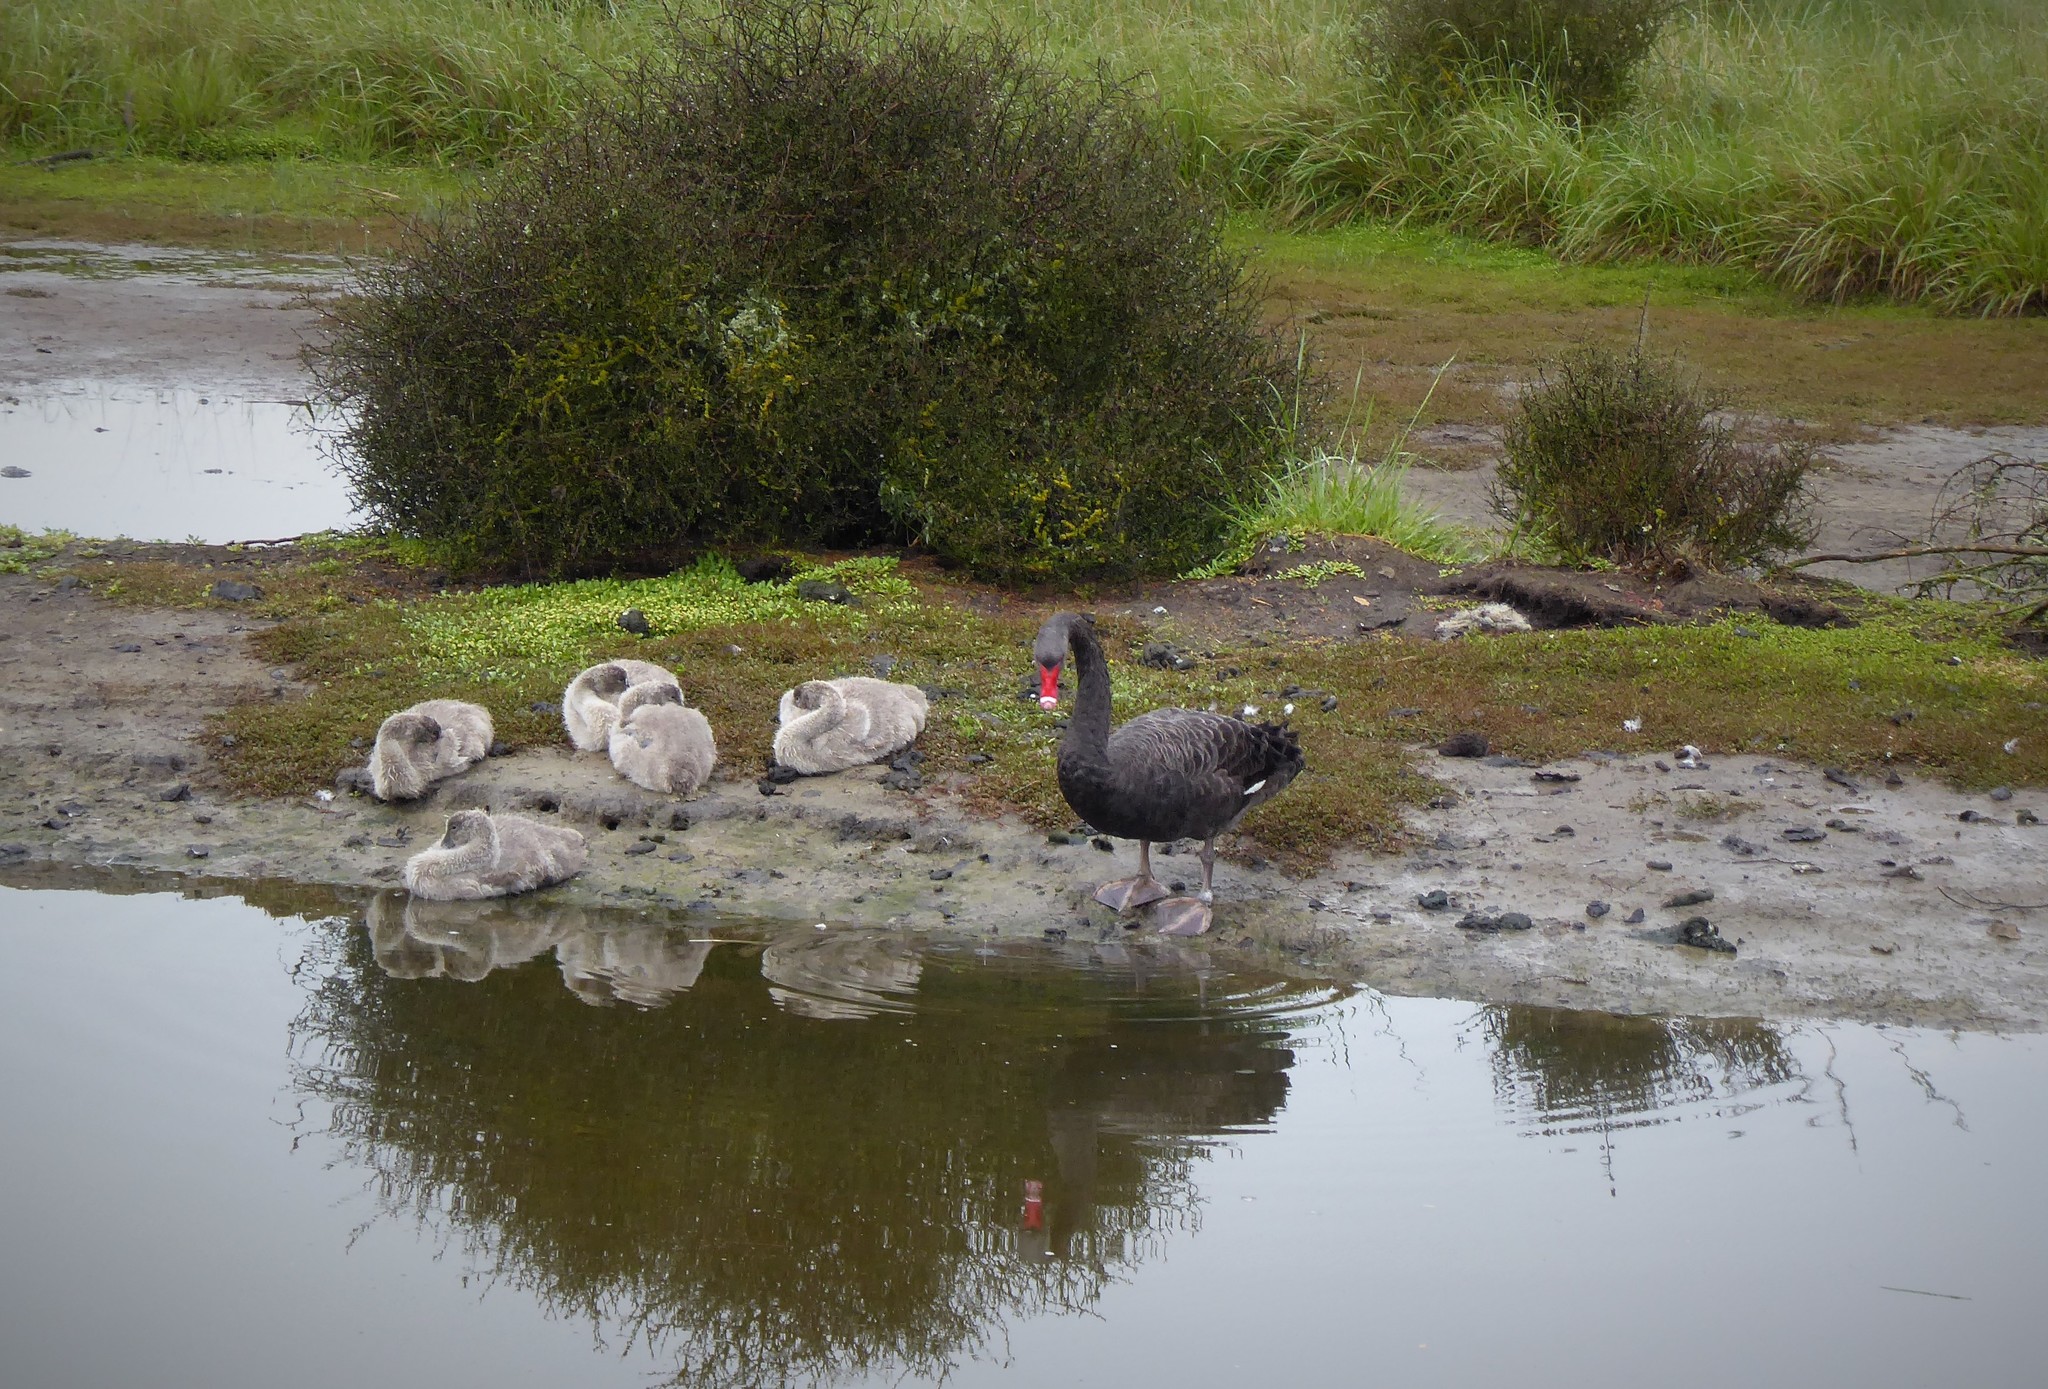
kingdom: Animalia
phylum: Chordata
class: Aves
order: Anseriformes
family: Anatidae
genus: Cygnus
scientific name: Cygnus atratus
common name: Black swan
